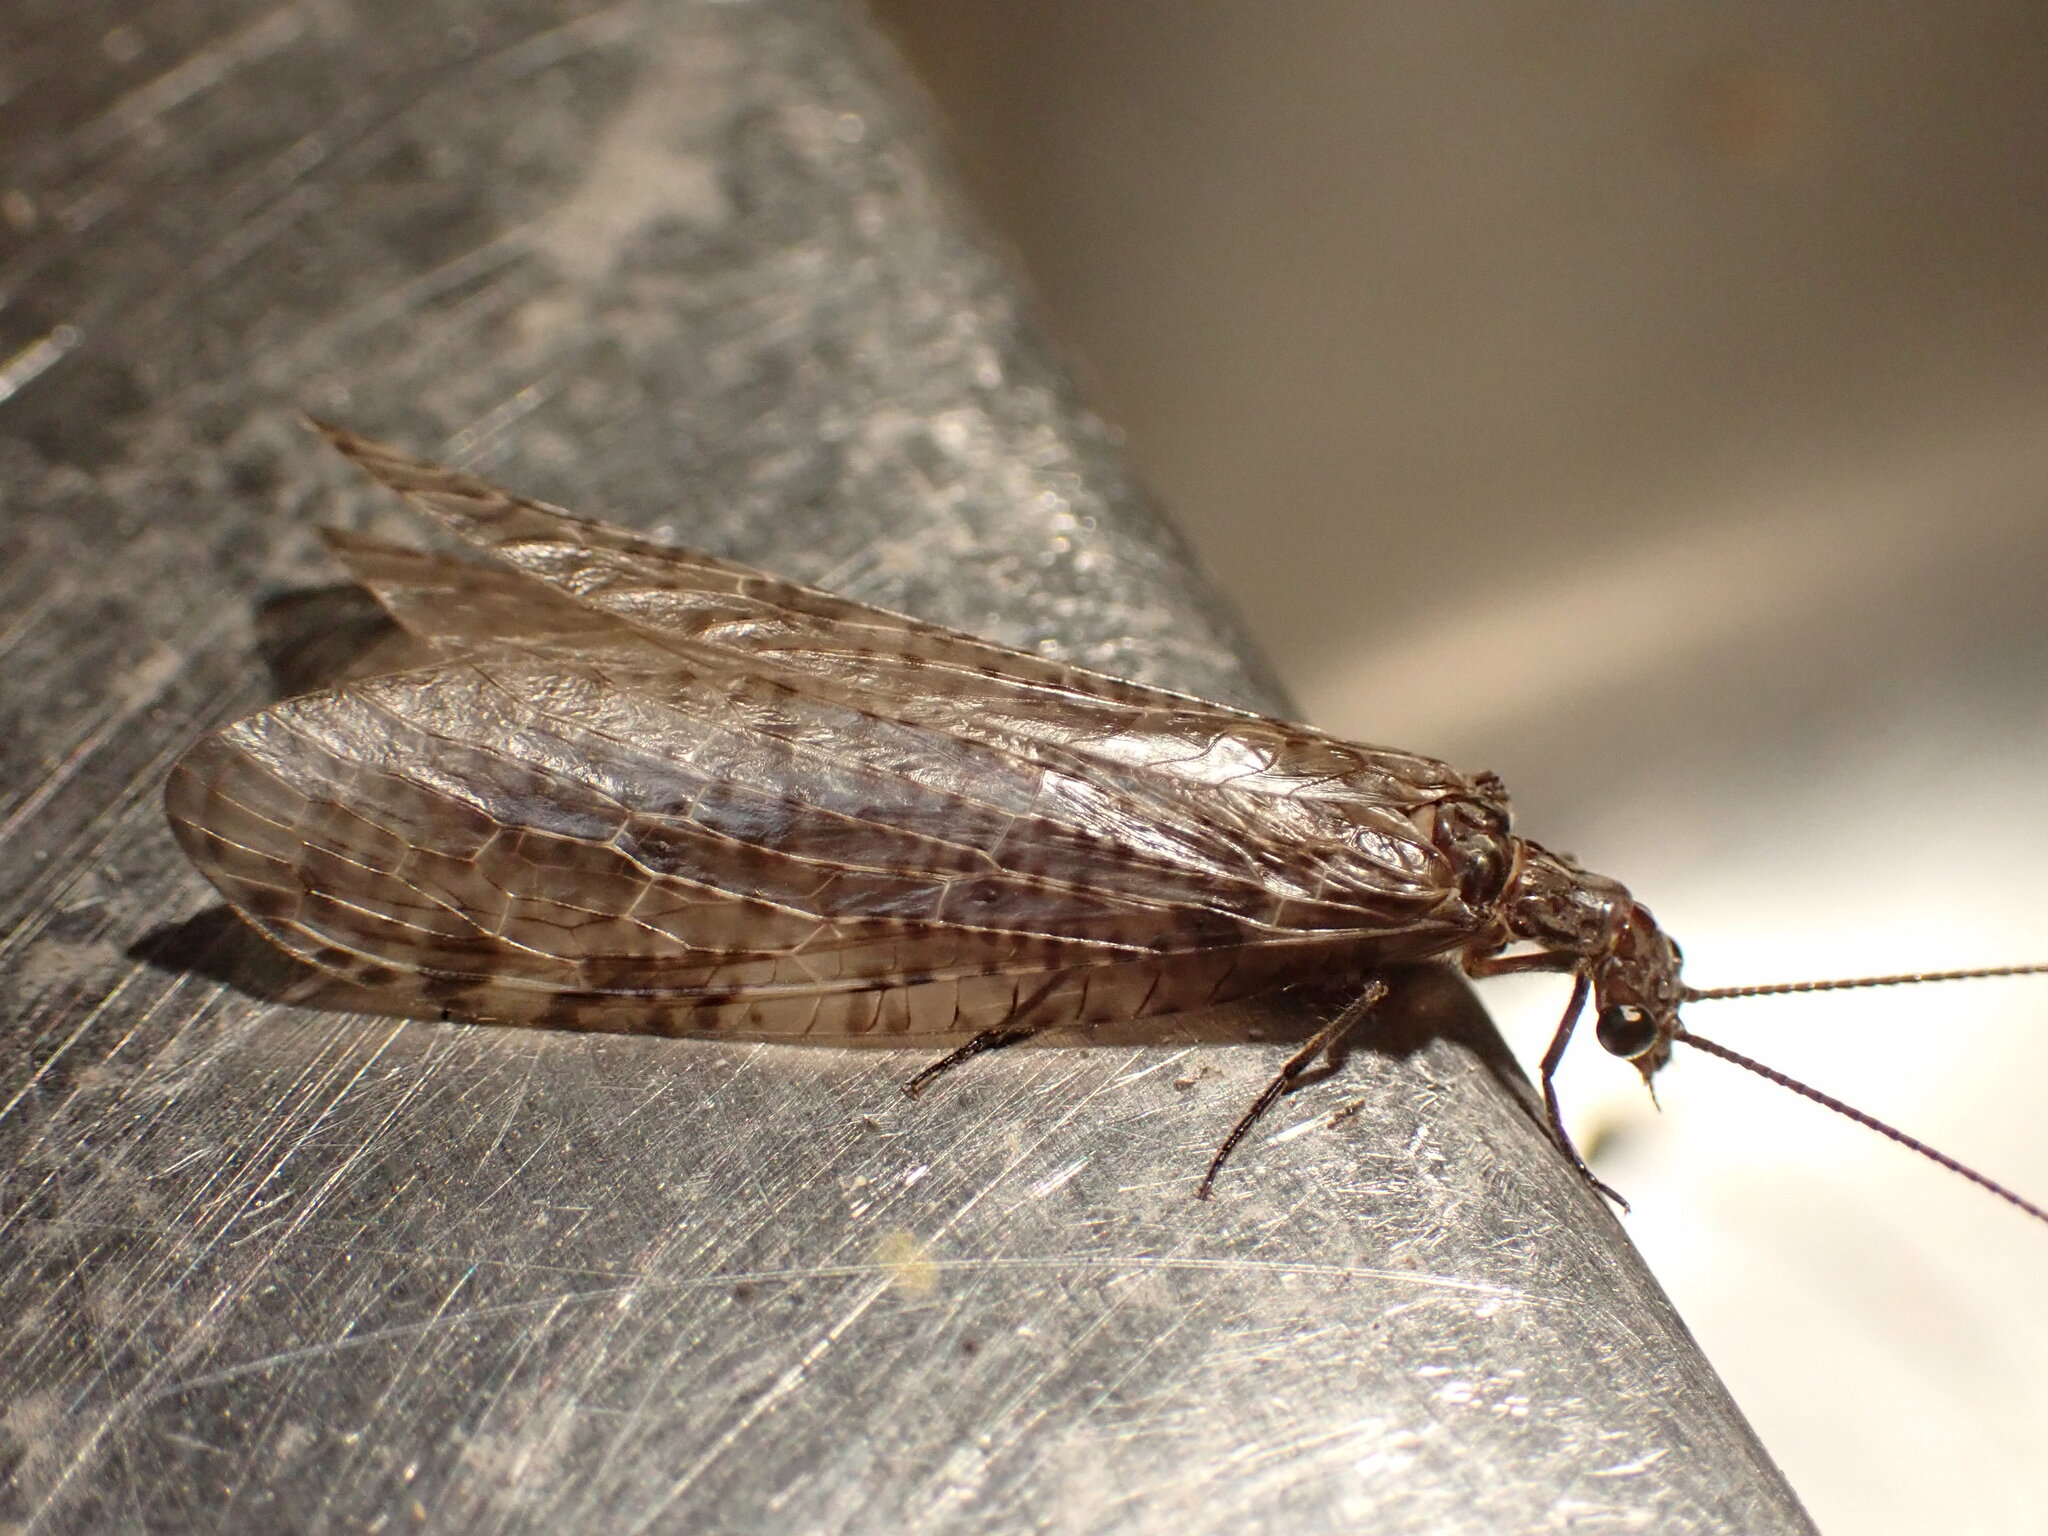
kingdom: Animalia
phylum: Arthropoda
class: Insecta
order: Megaloptera
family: Corydalidae
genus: Archichauliodes
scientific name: Archichauliodes diversus
